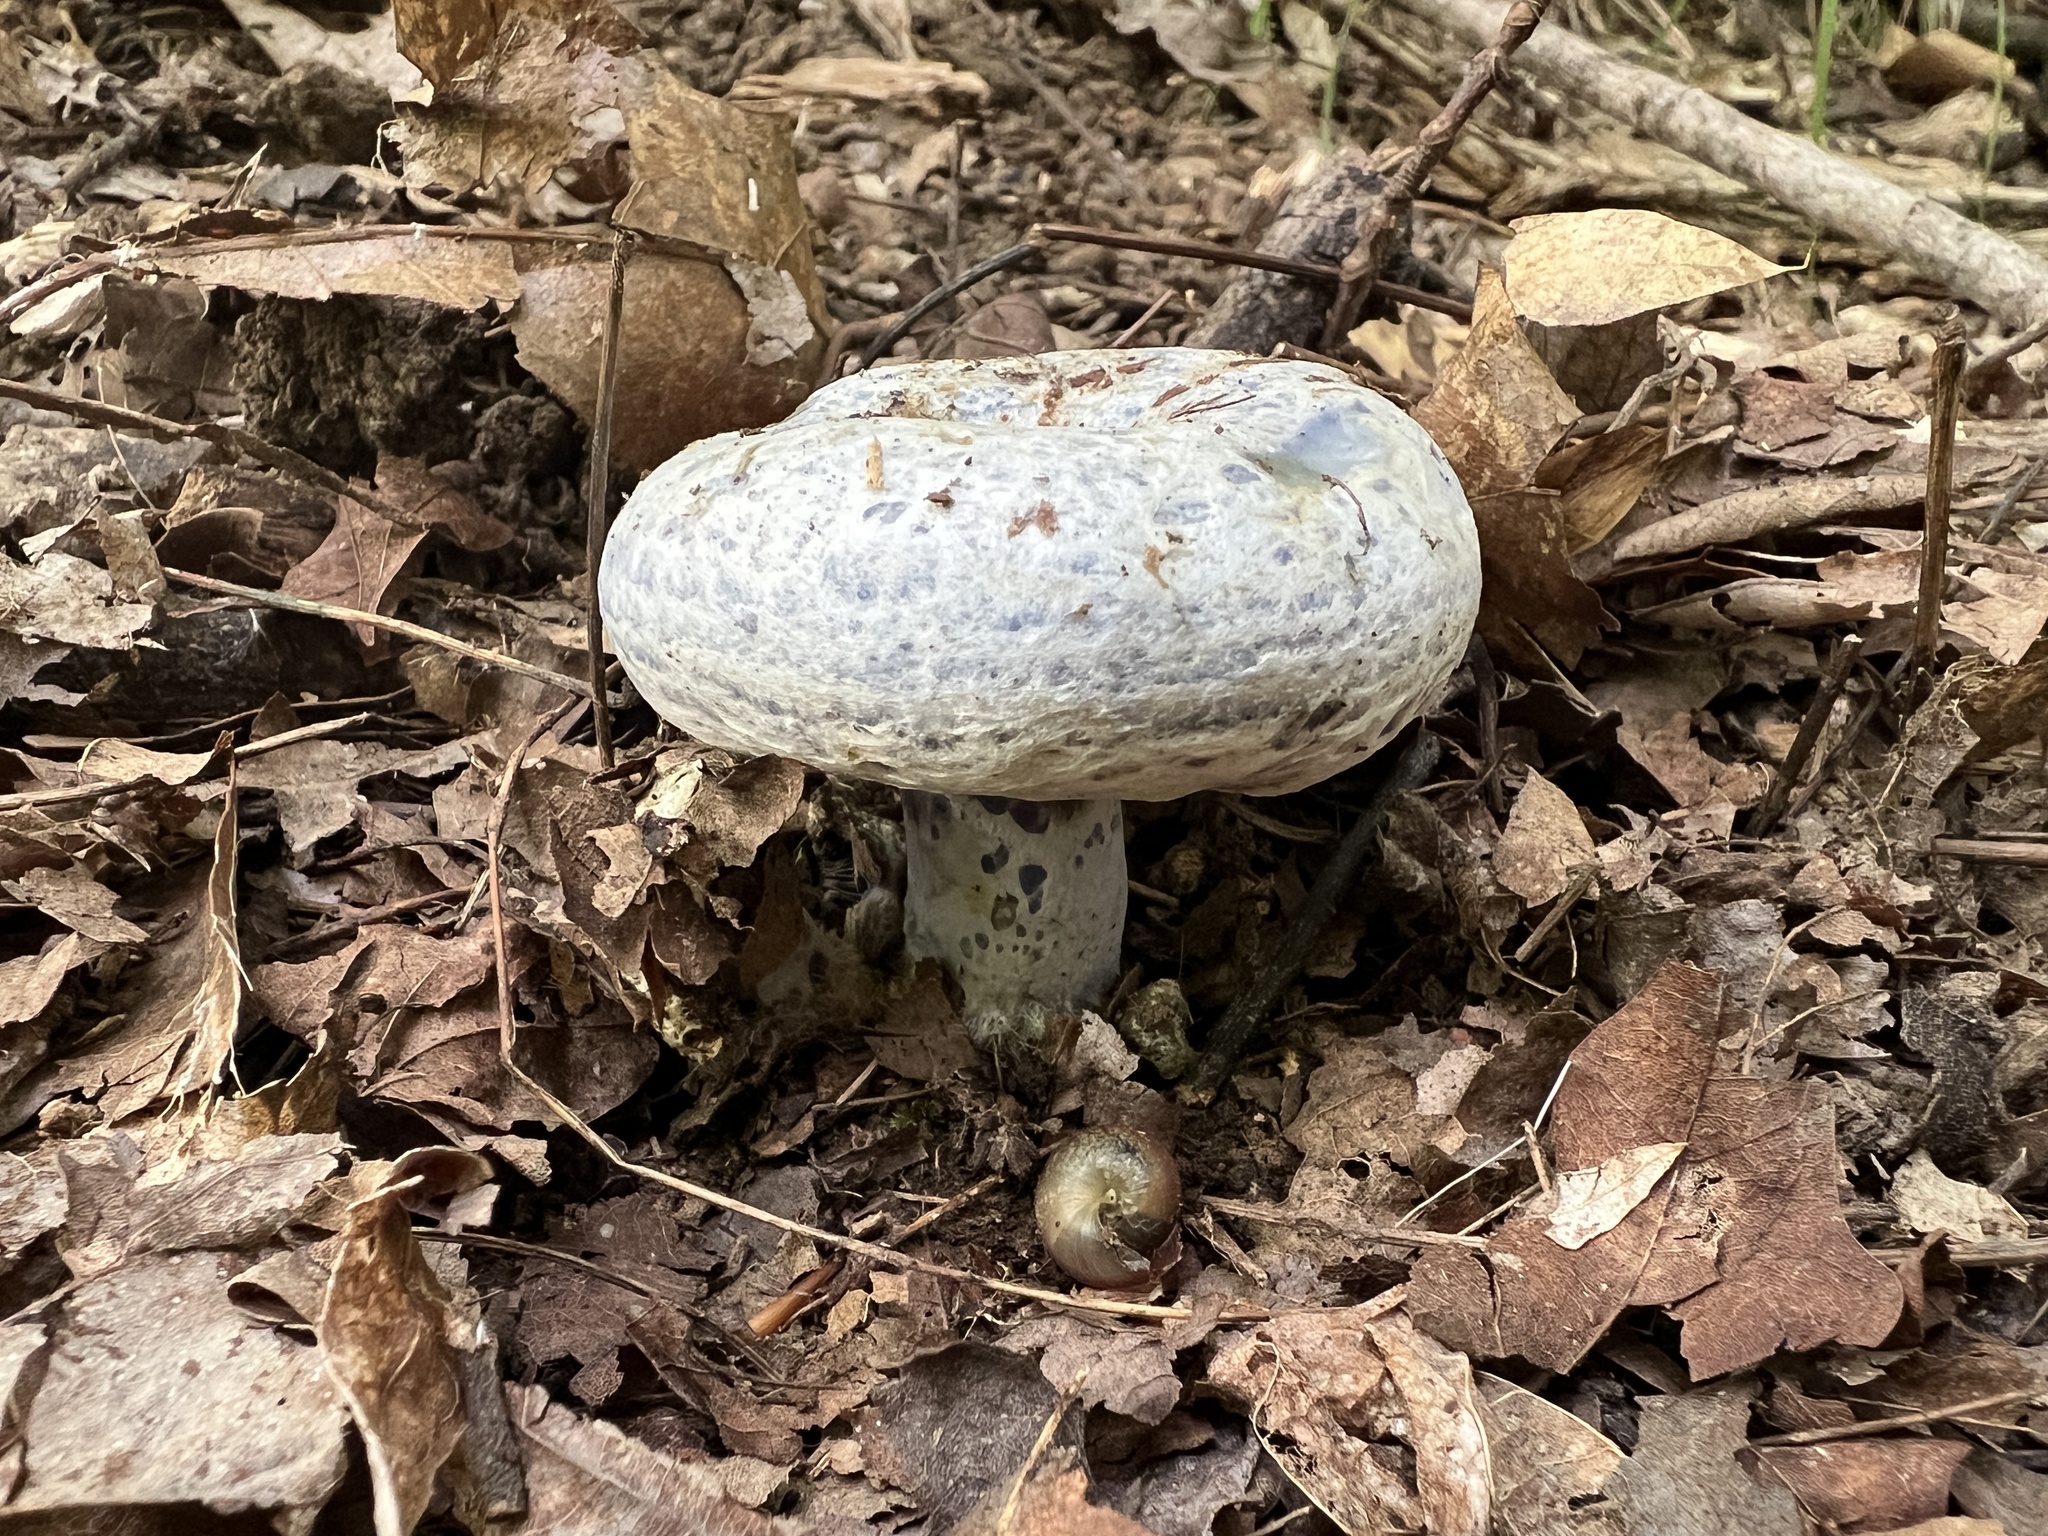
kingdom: Fungi
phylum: Basidiomycota
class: Agaricomycetes
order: Russulales
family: Russulaceae
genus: Lactarius
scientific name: Lactarius indigo
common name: Indigo milk cap
